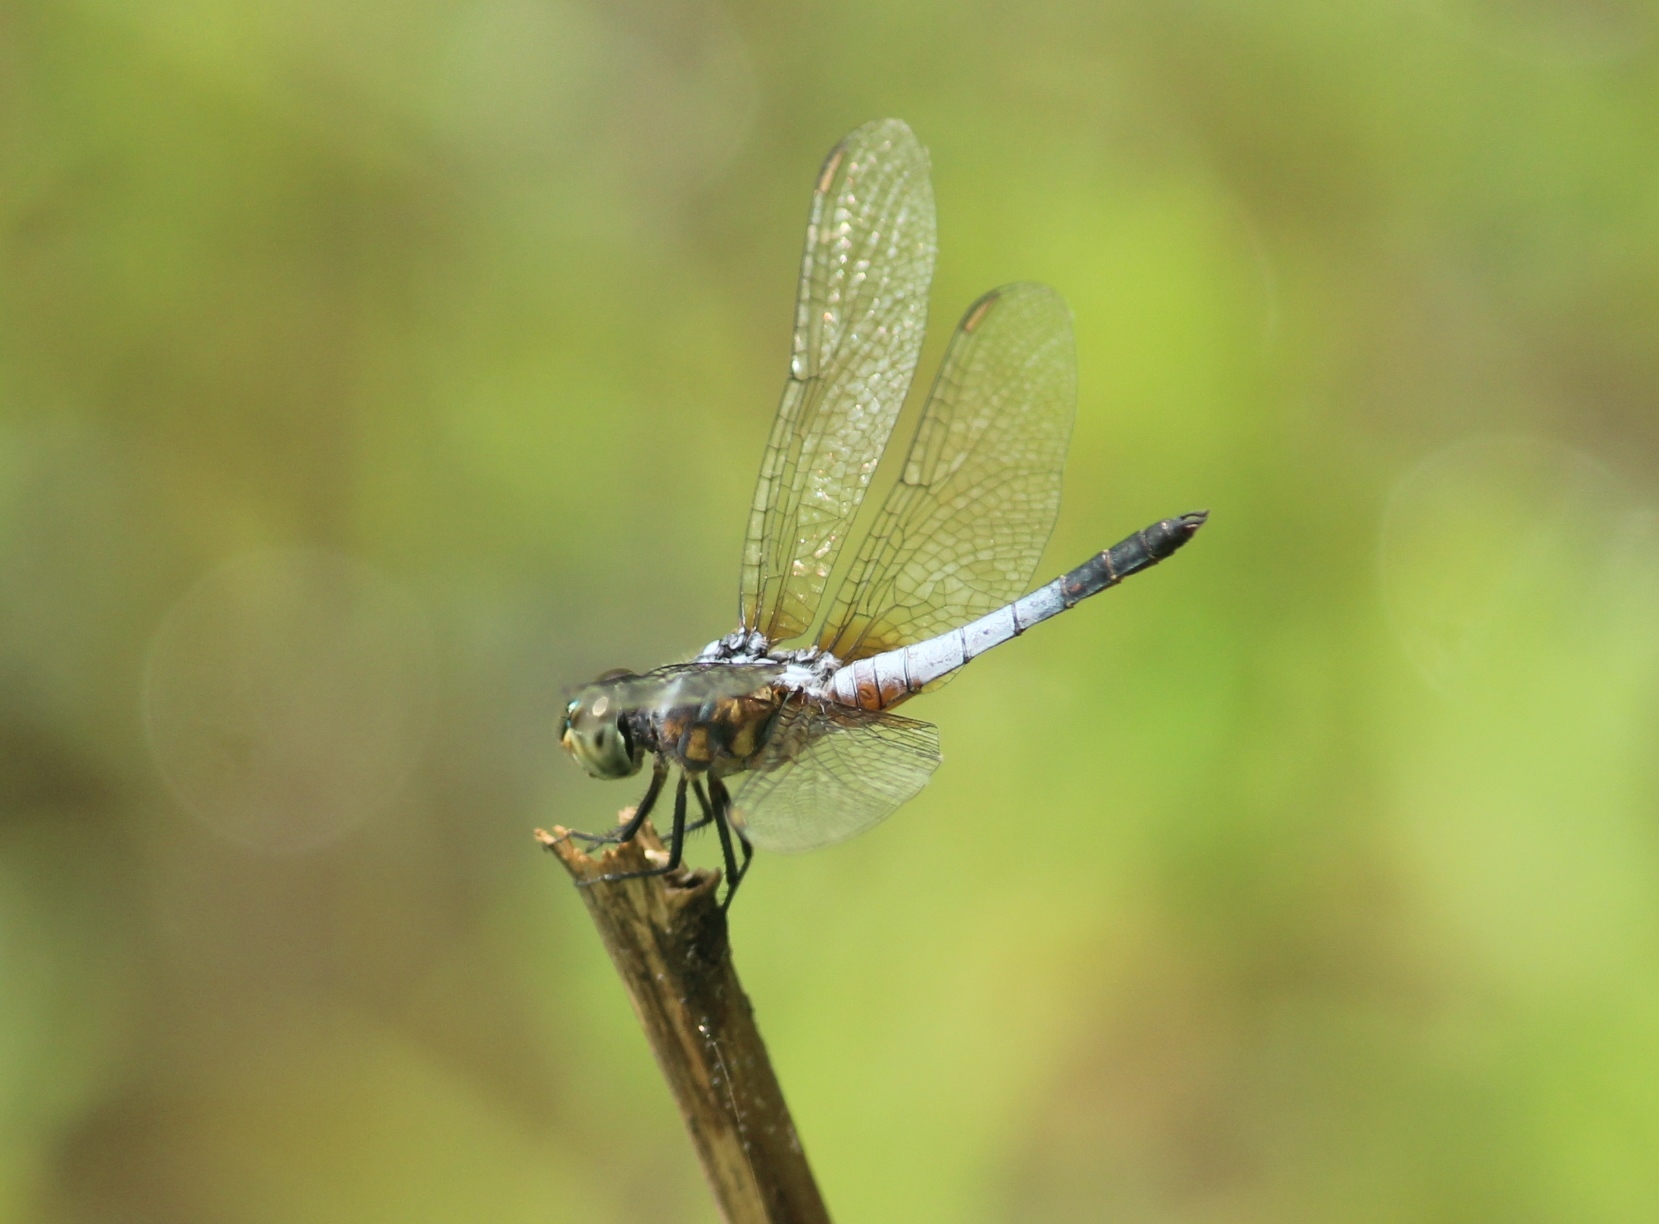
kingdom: Animalia
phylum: Arthropoda
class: Insecta
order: Odonata
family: Libellulidae
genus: Brachydiplax
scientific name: Brachydiplax chalybea
